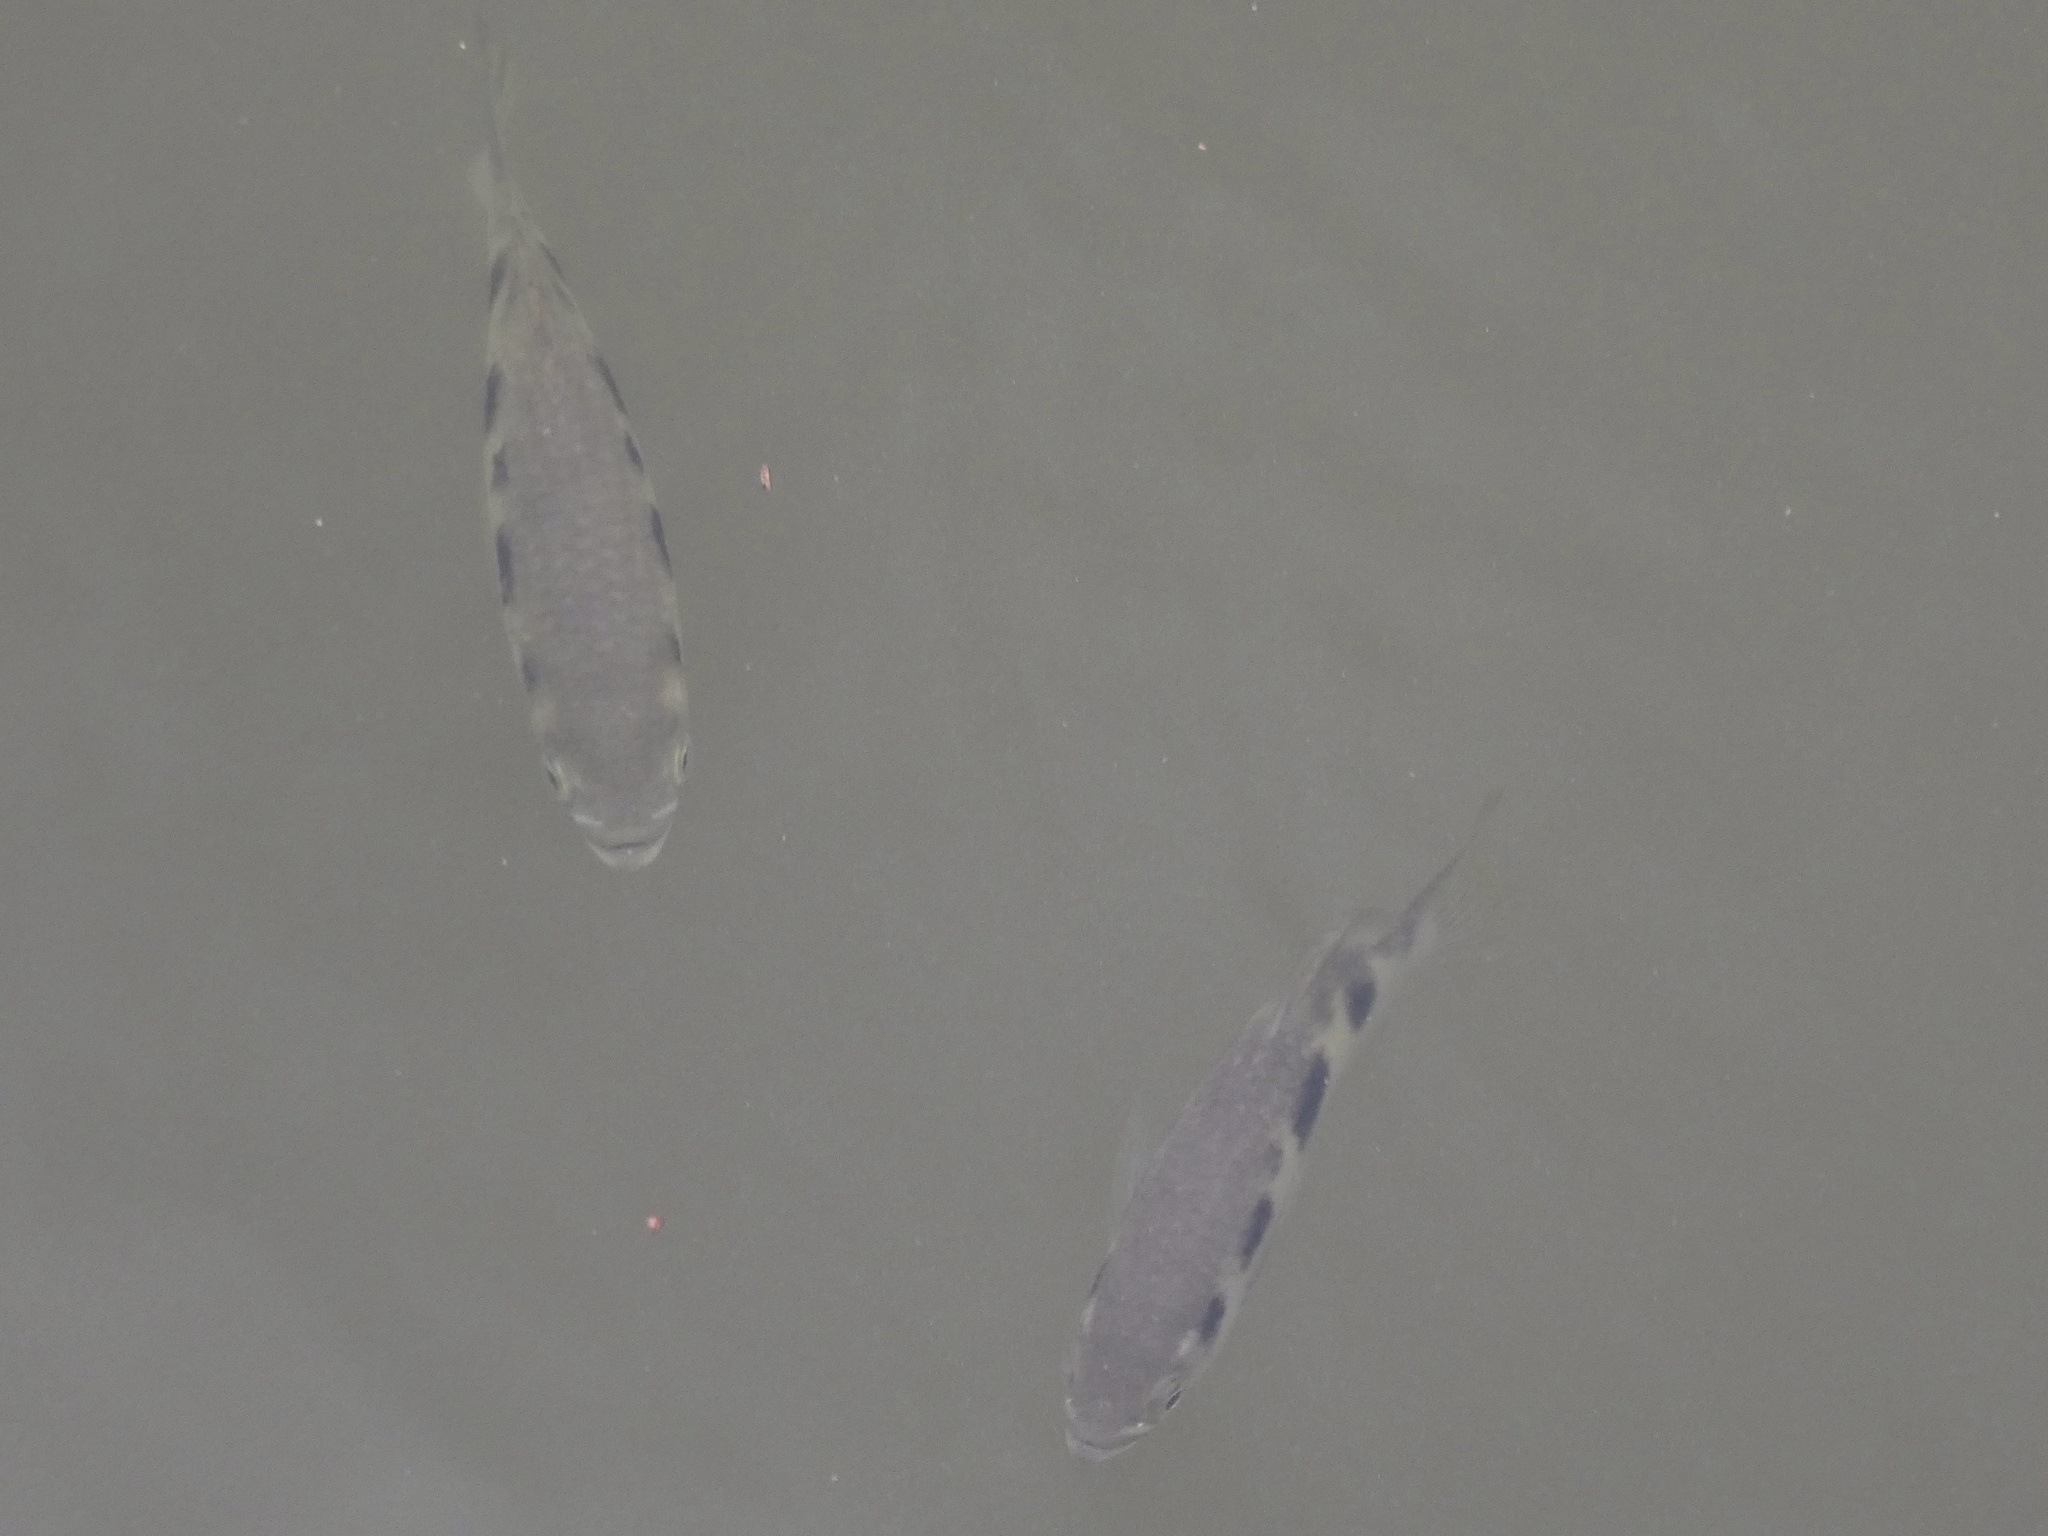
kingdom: Animalia
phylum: Chordata
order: Perciformes
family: Toxotidae
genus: Toxotes
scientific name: Toxotes chatareus
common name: Spotted archerfish
